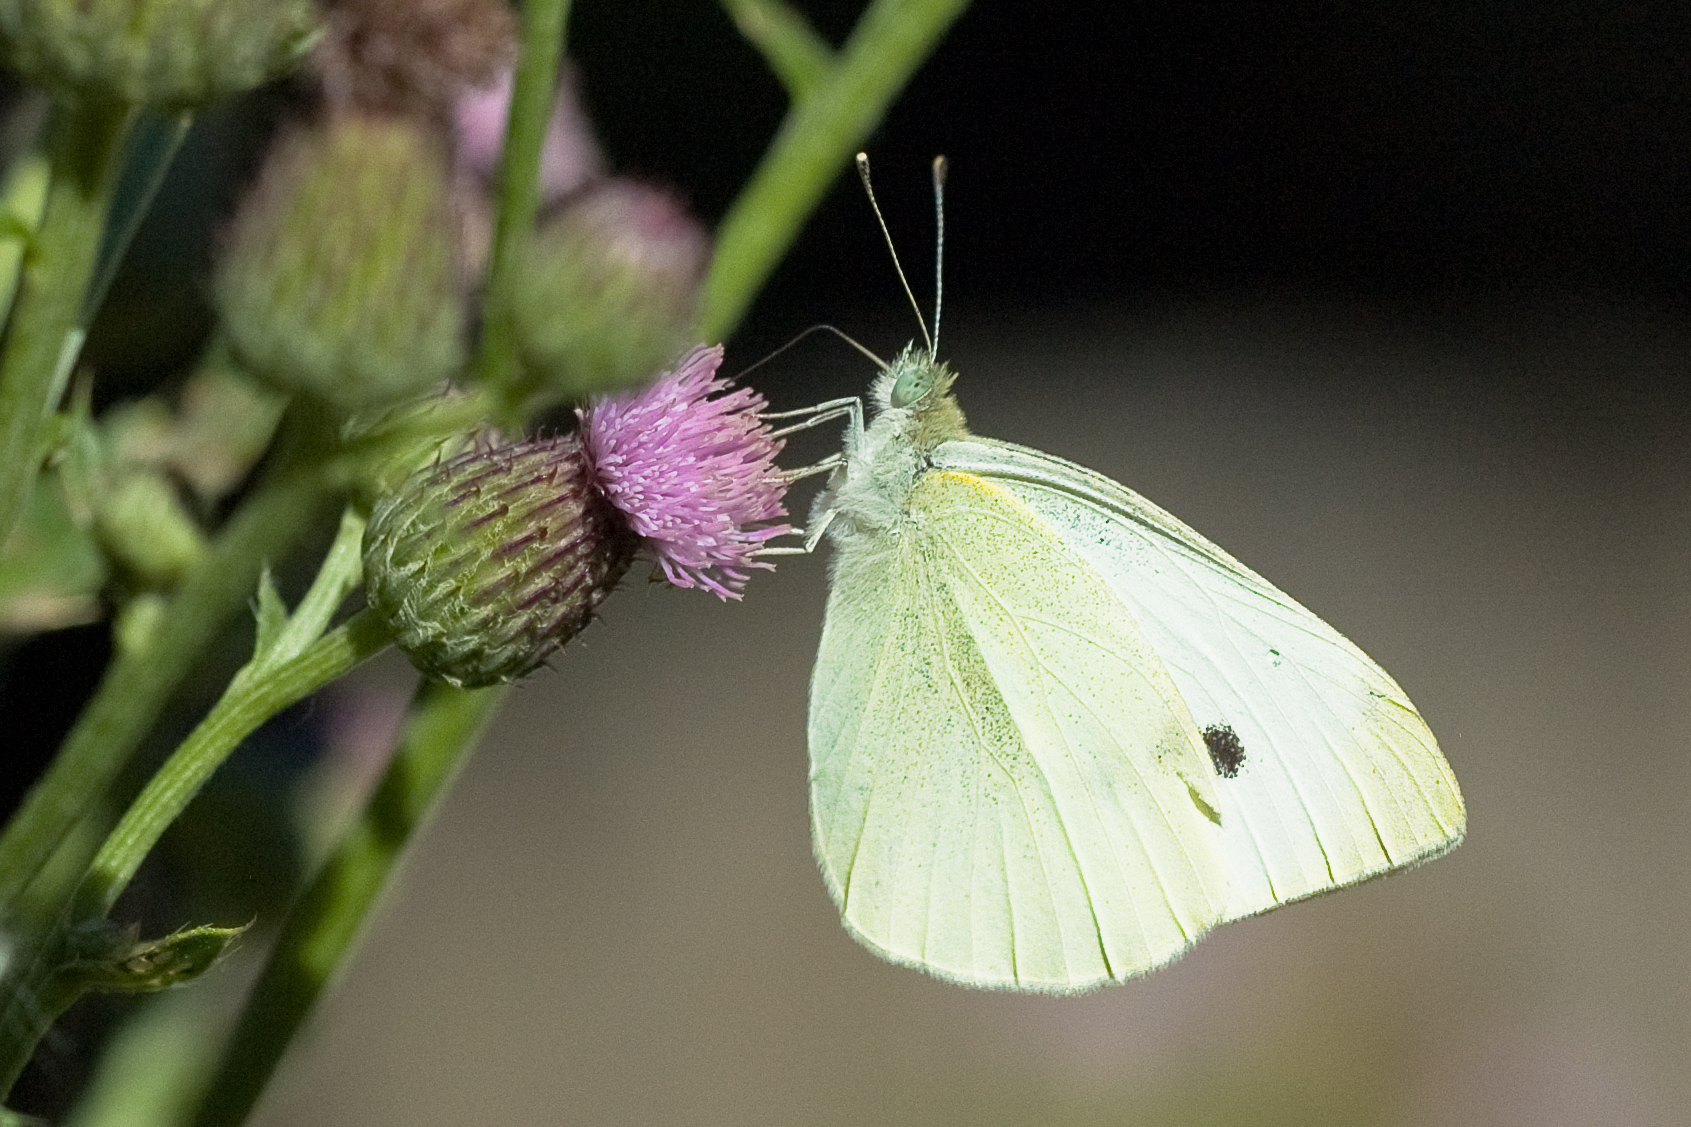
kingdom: Animalia
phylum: Arthropoda
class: Insecta
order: Lepidoptera
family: Pieridae
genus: Pieris
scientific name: Pieris rapae
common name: Small white
